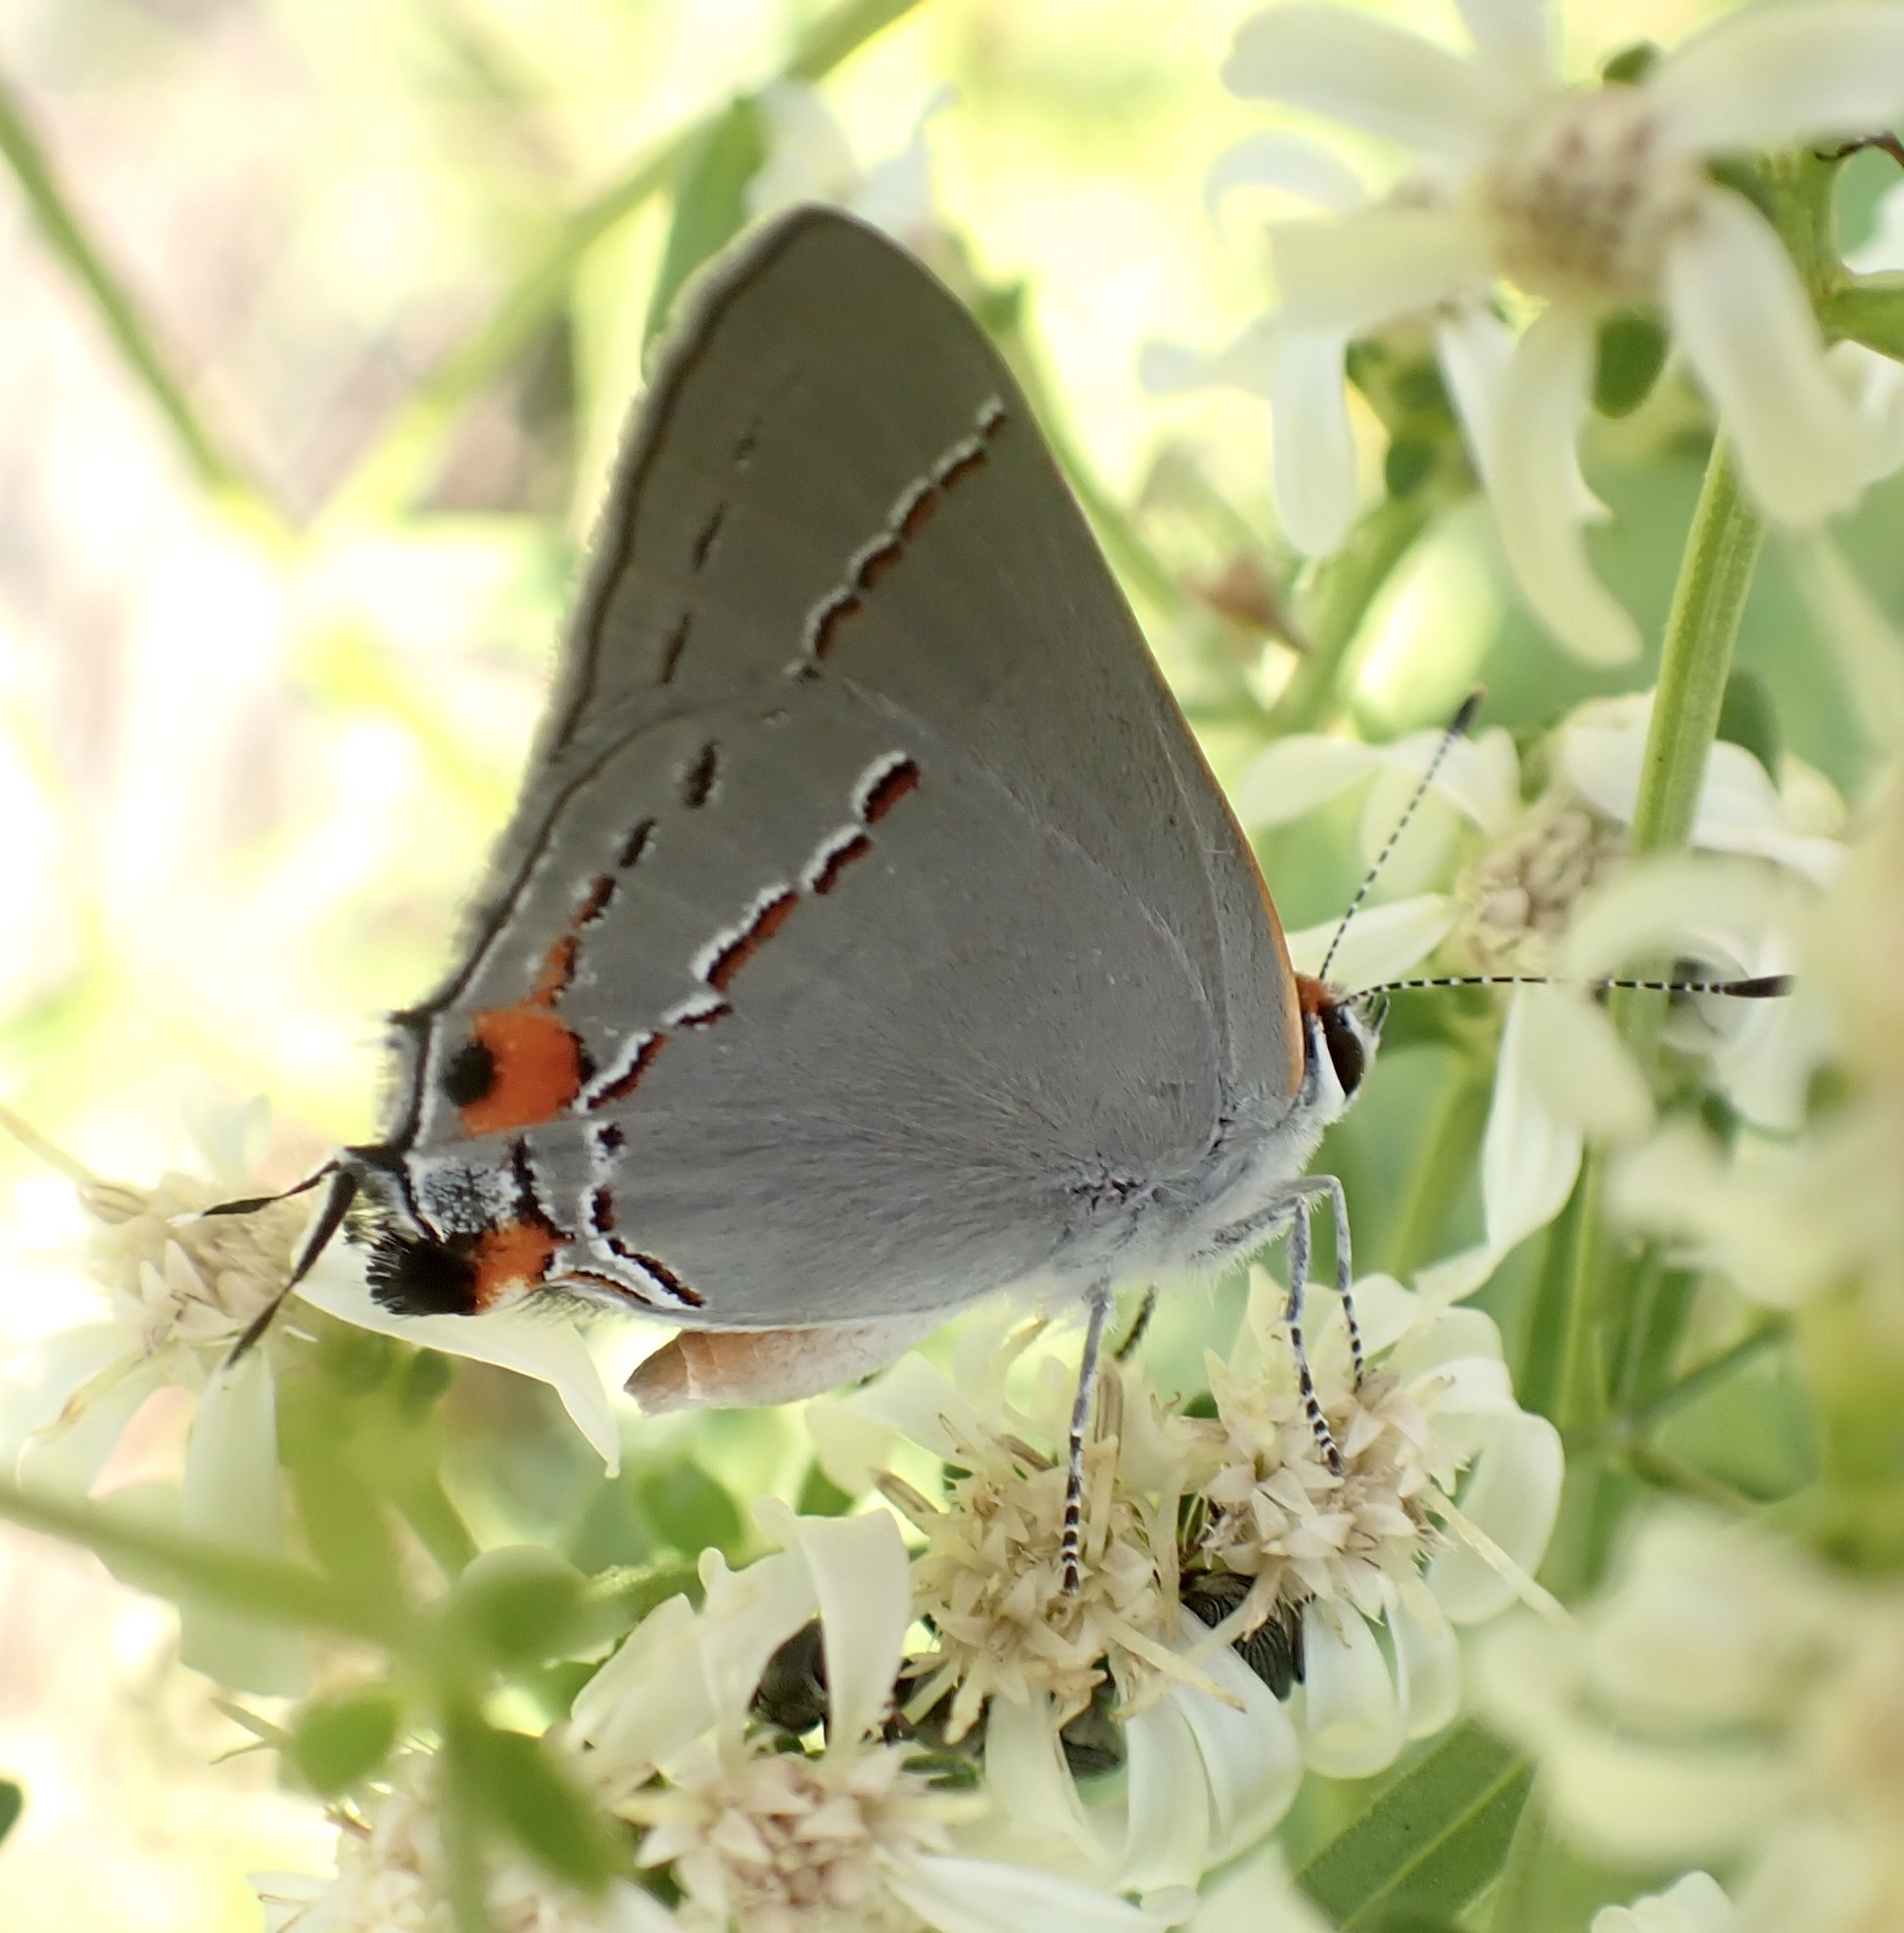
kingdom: Animalia
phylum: Arthropoda
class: Insecta
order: Lepidoptera
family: Lycaenidae
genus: Strymon
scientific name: Strymon melinus
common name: Gray hairstreak
